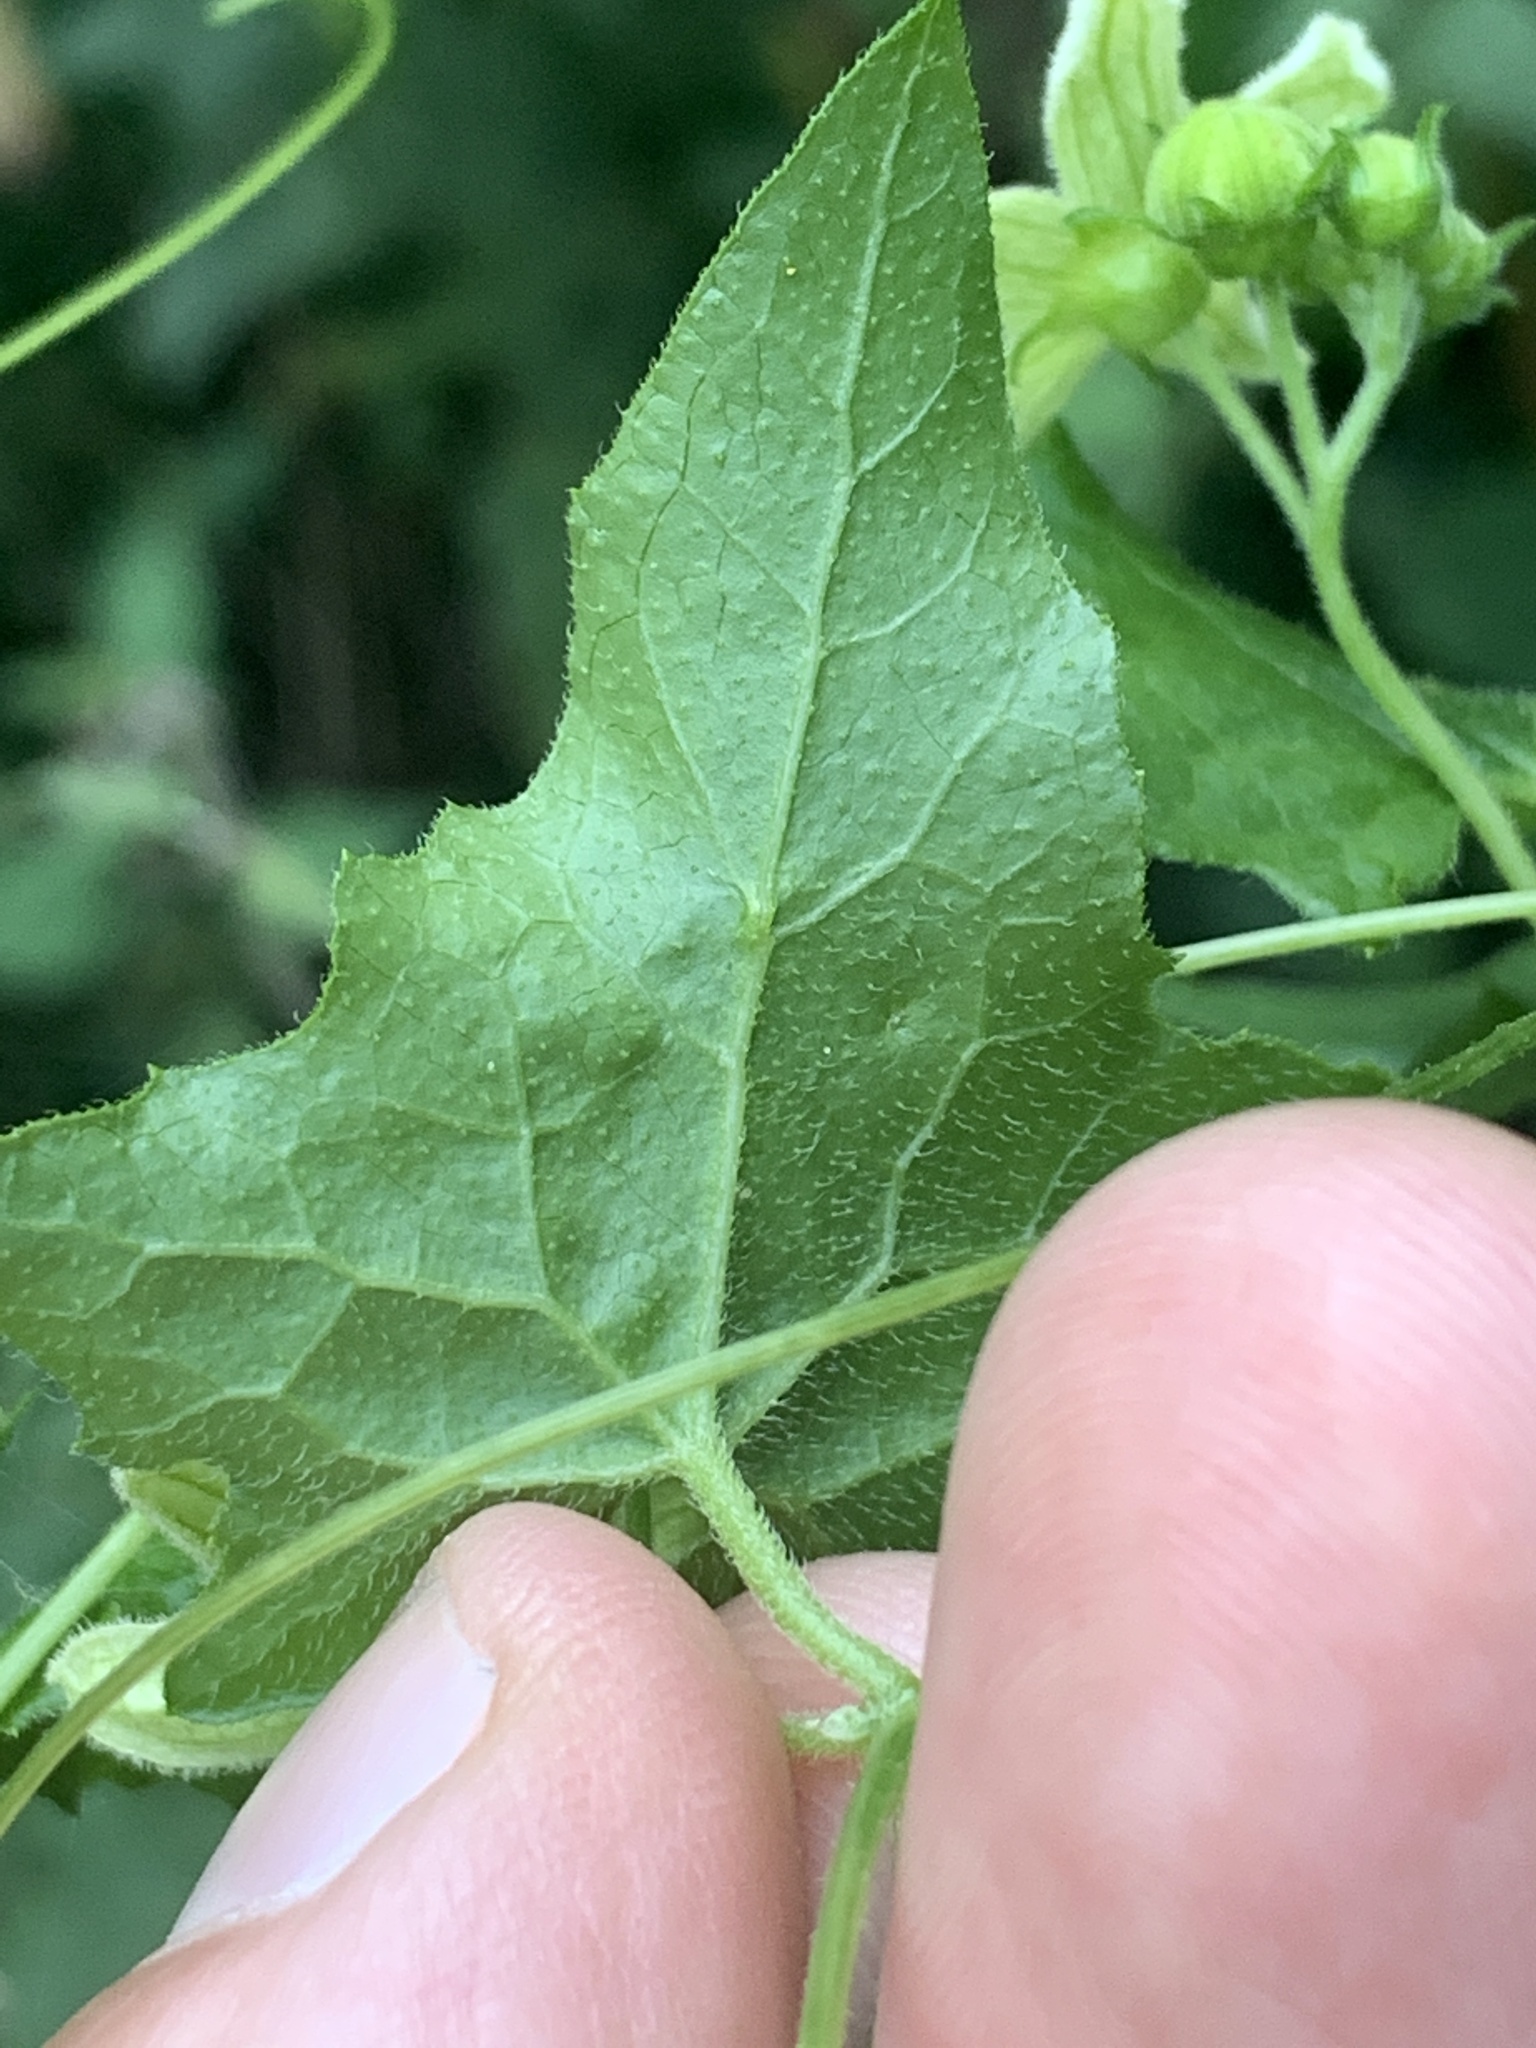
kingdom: Plantae
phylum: Tracheophyta
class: Magnoliopsida
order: Cucurbitales
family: Cucurbitaceae
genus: Bryonia
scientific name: Bryonia cretica
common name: Cretan bryony
